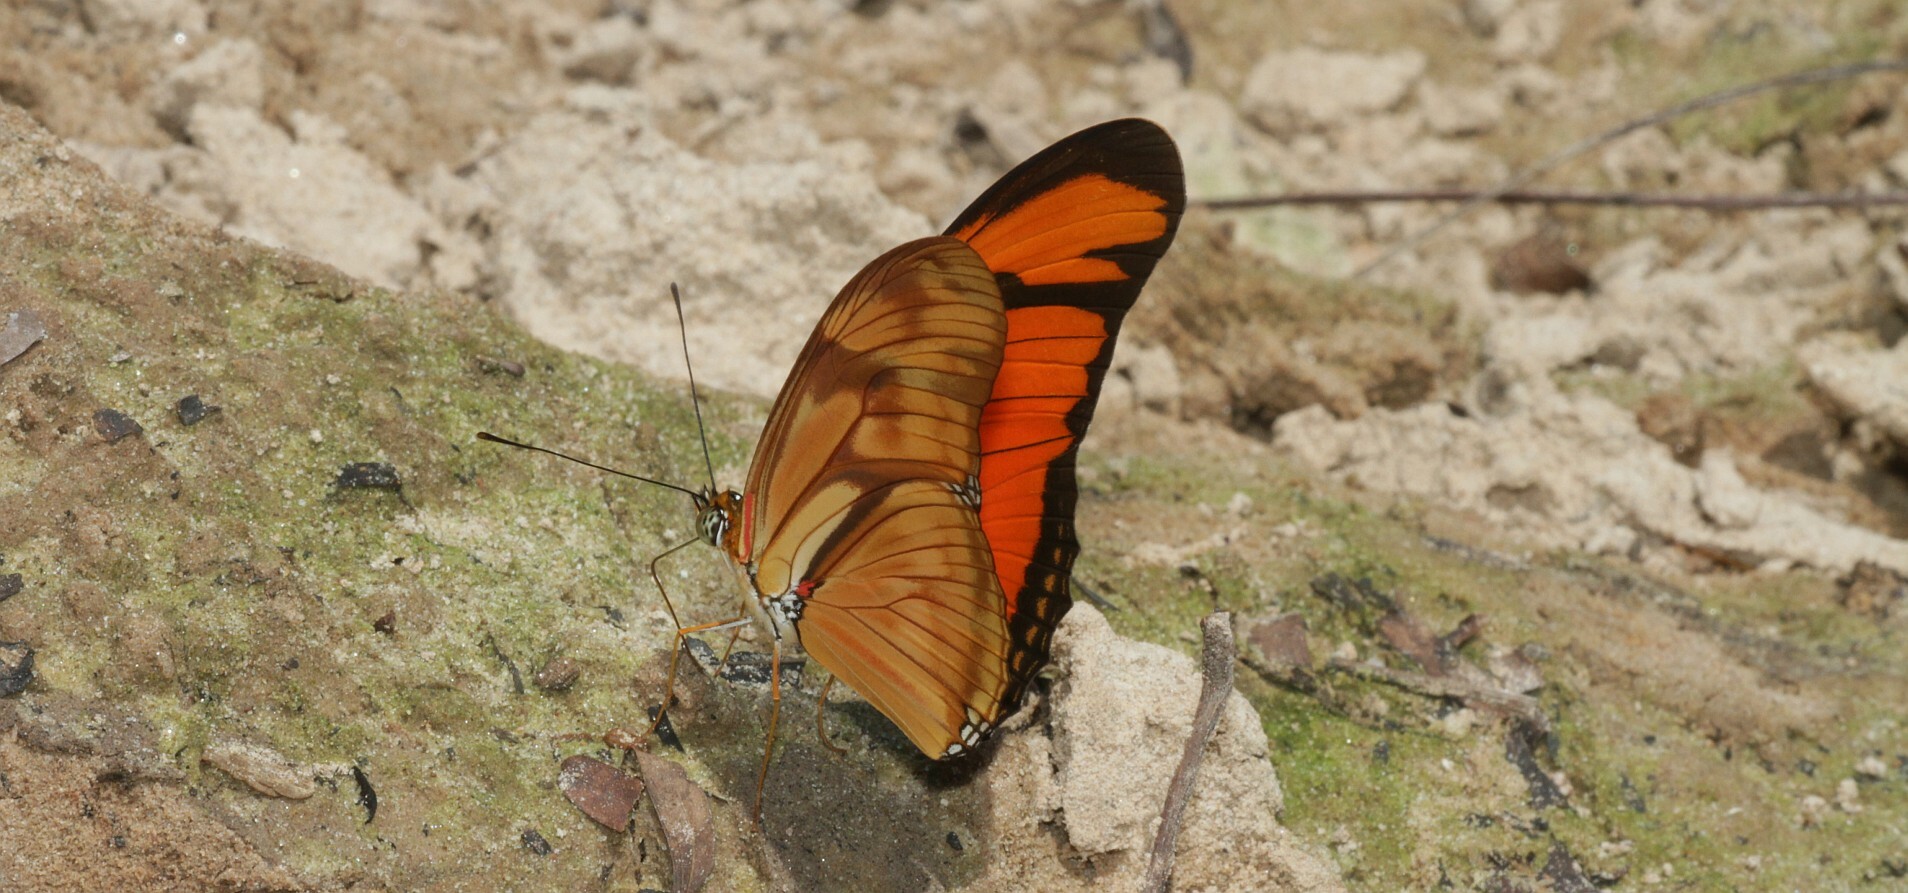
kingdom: Animalia
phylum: Arthropoda
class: Insecta
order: Lepidoptera
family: Nymphalidae
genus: Dryas
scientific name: Dryas iulia
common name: Flambeau
